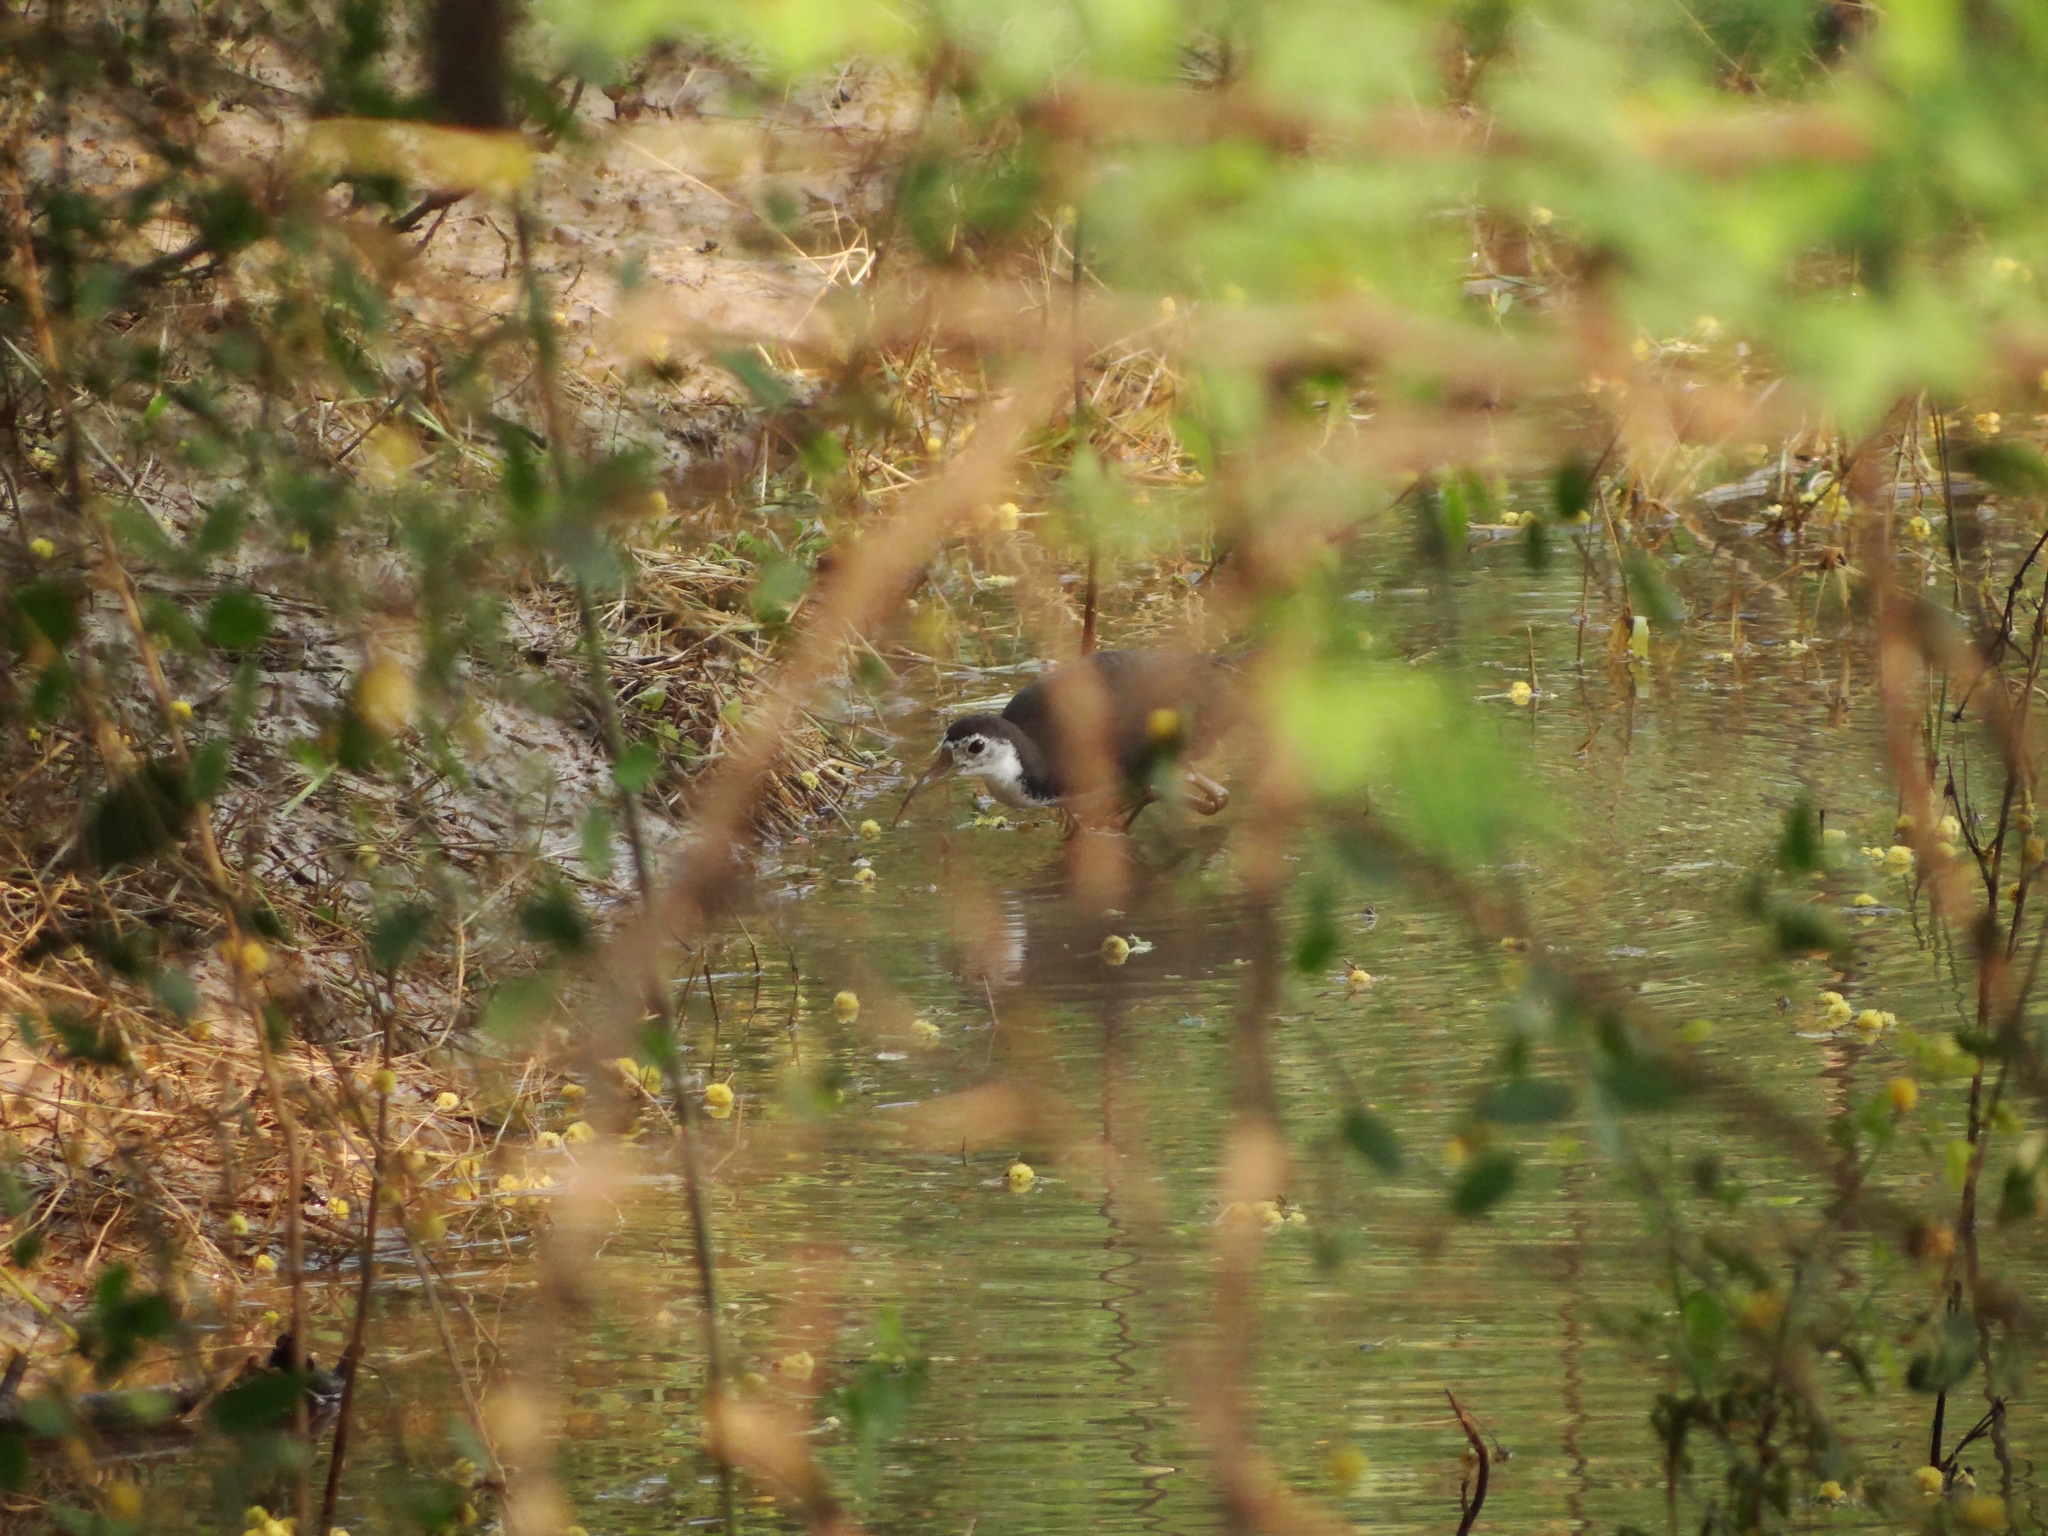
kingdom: Animalia
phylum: Chordata
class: Aves
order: Gruiformes
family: Rallidae
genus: Amaurornis
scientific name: Amaurornis phoenicurus
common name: White-breasted waterhen
